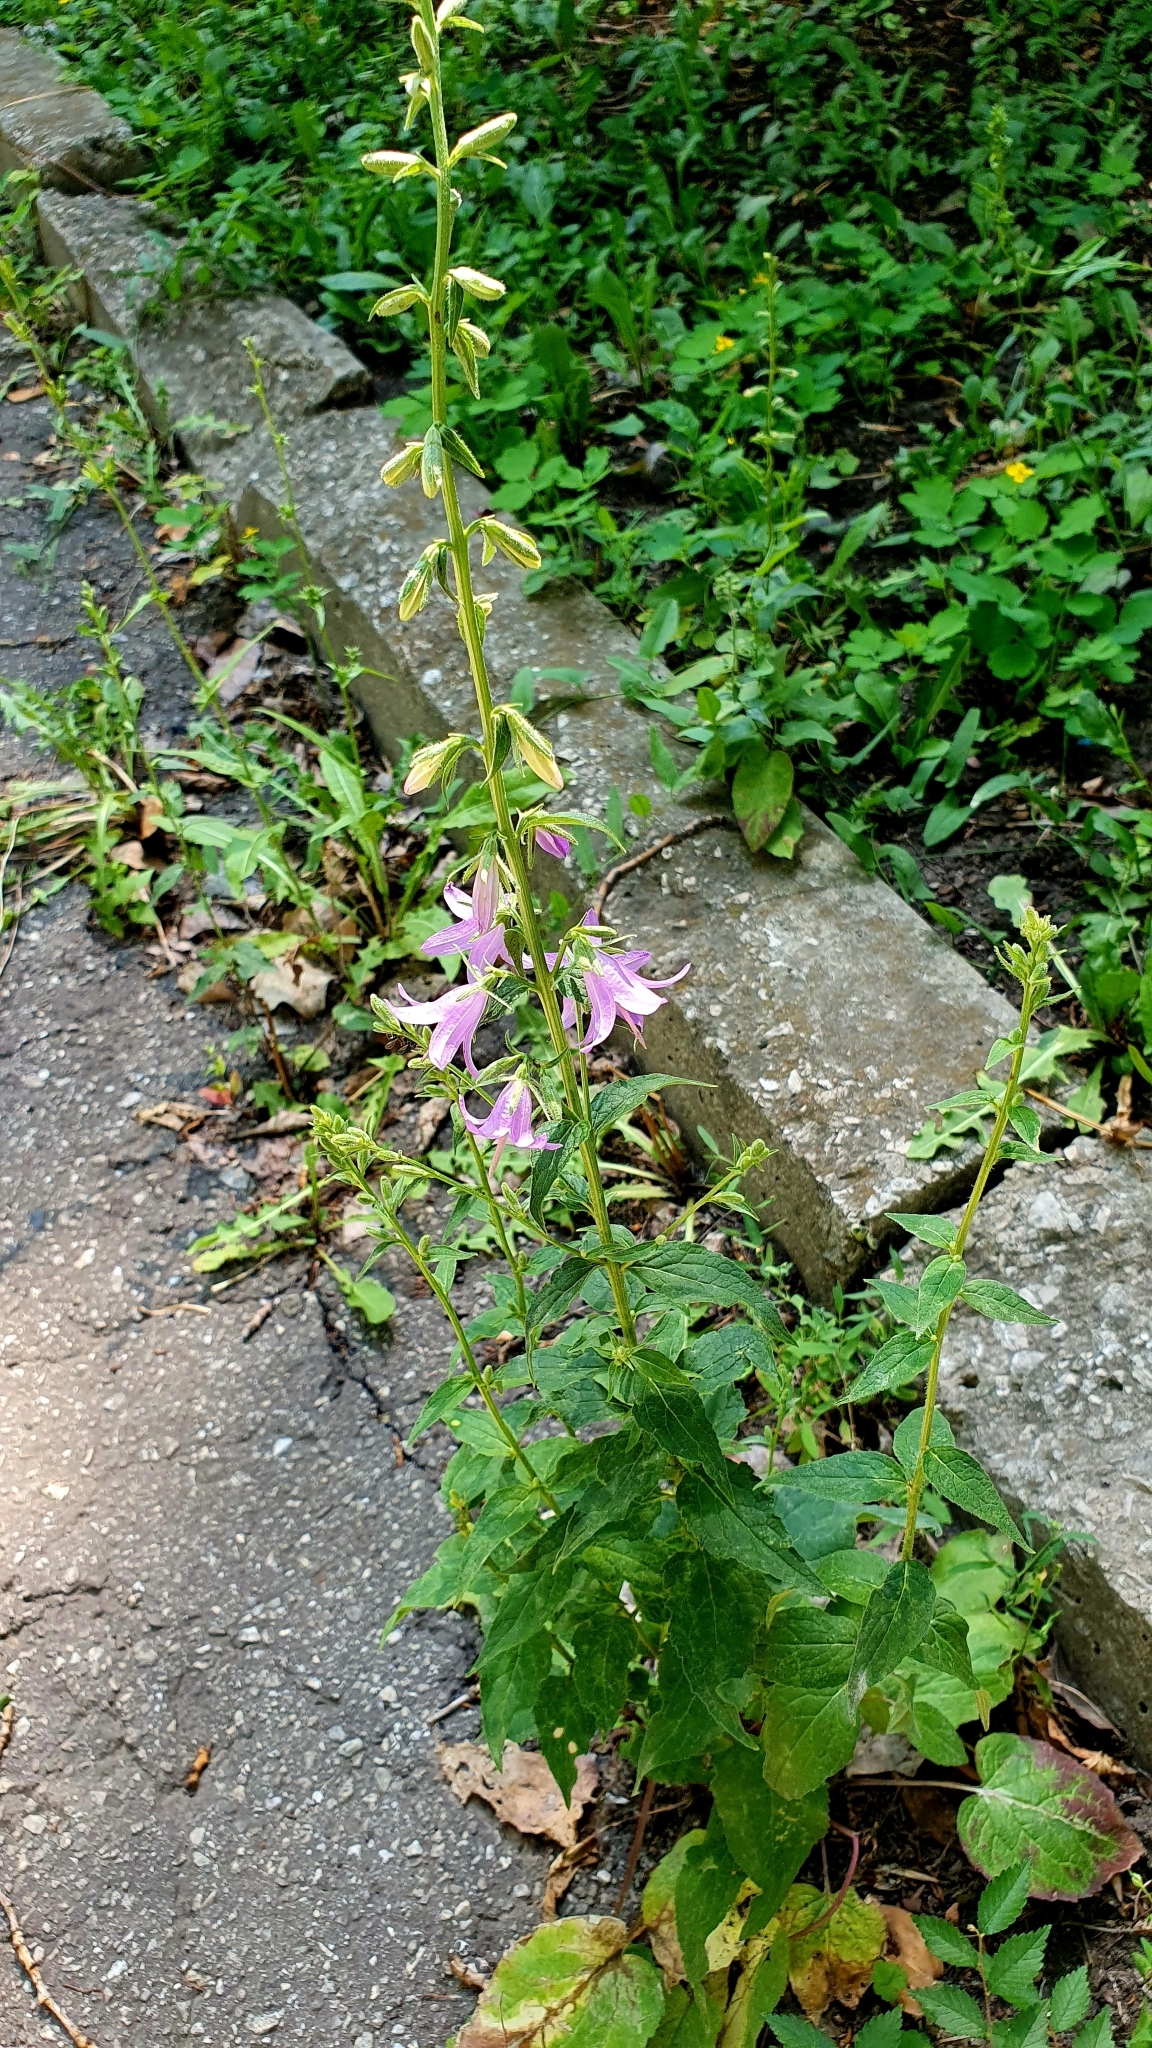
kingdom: Plantae
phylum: Tracheophyta
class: Magnoliopsida
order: Asterales
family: Campanulaceae
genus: Campanula
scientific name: Campanula rapunculoides
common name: Creeping bellflower
